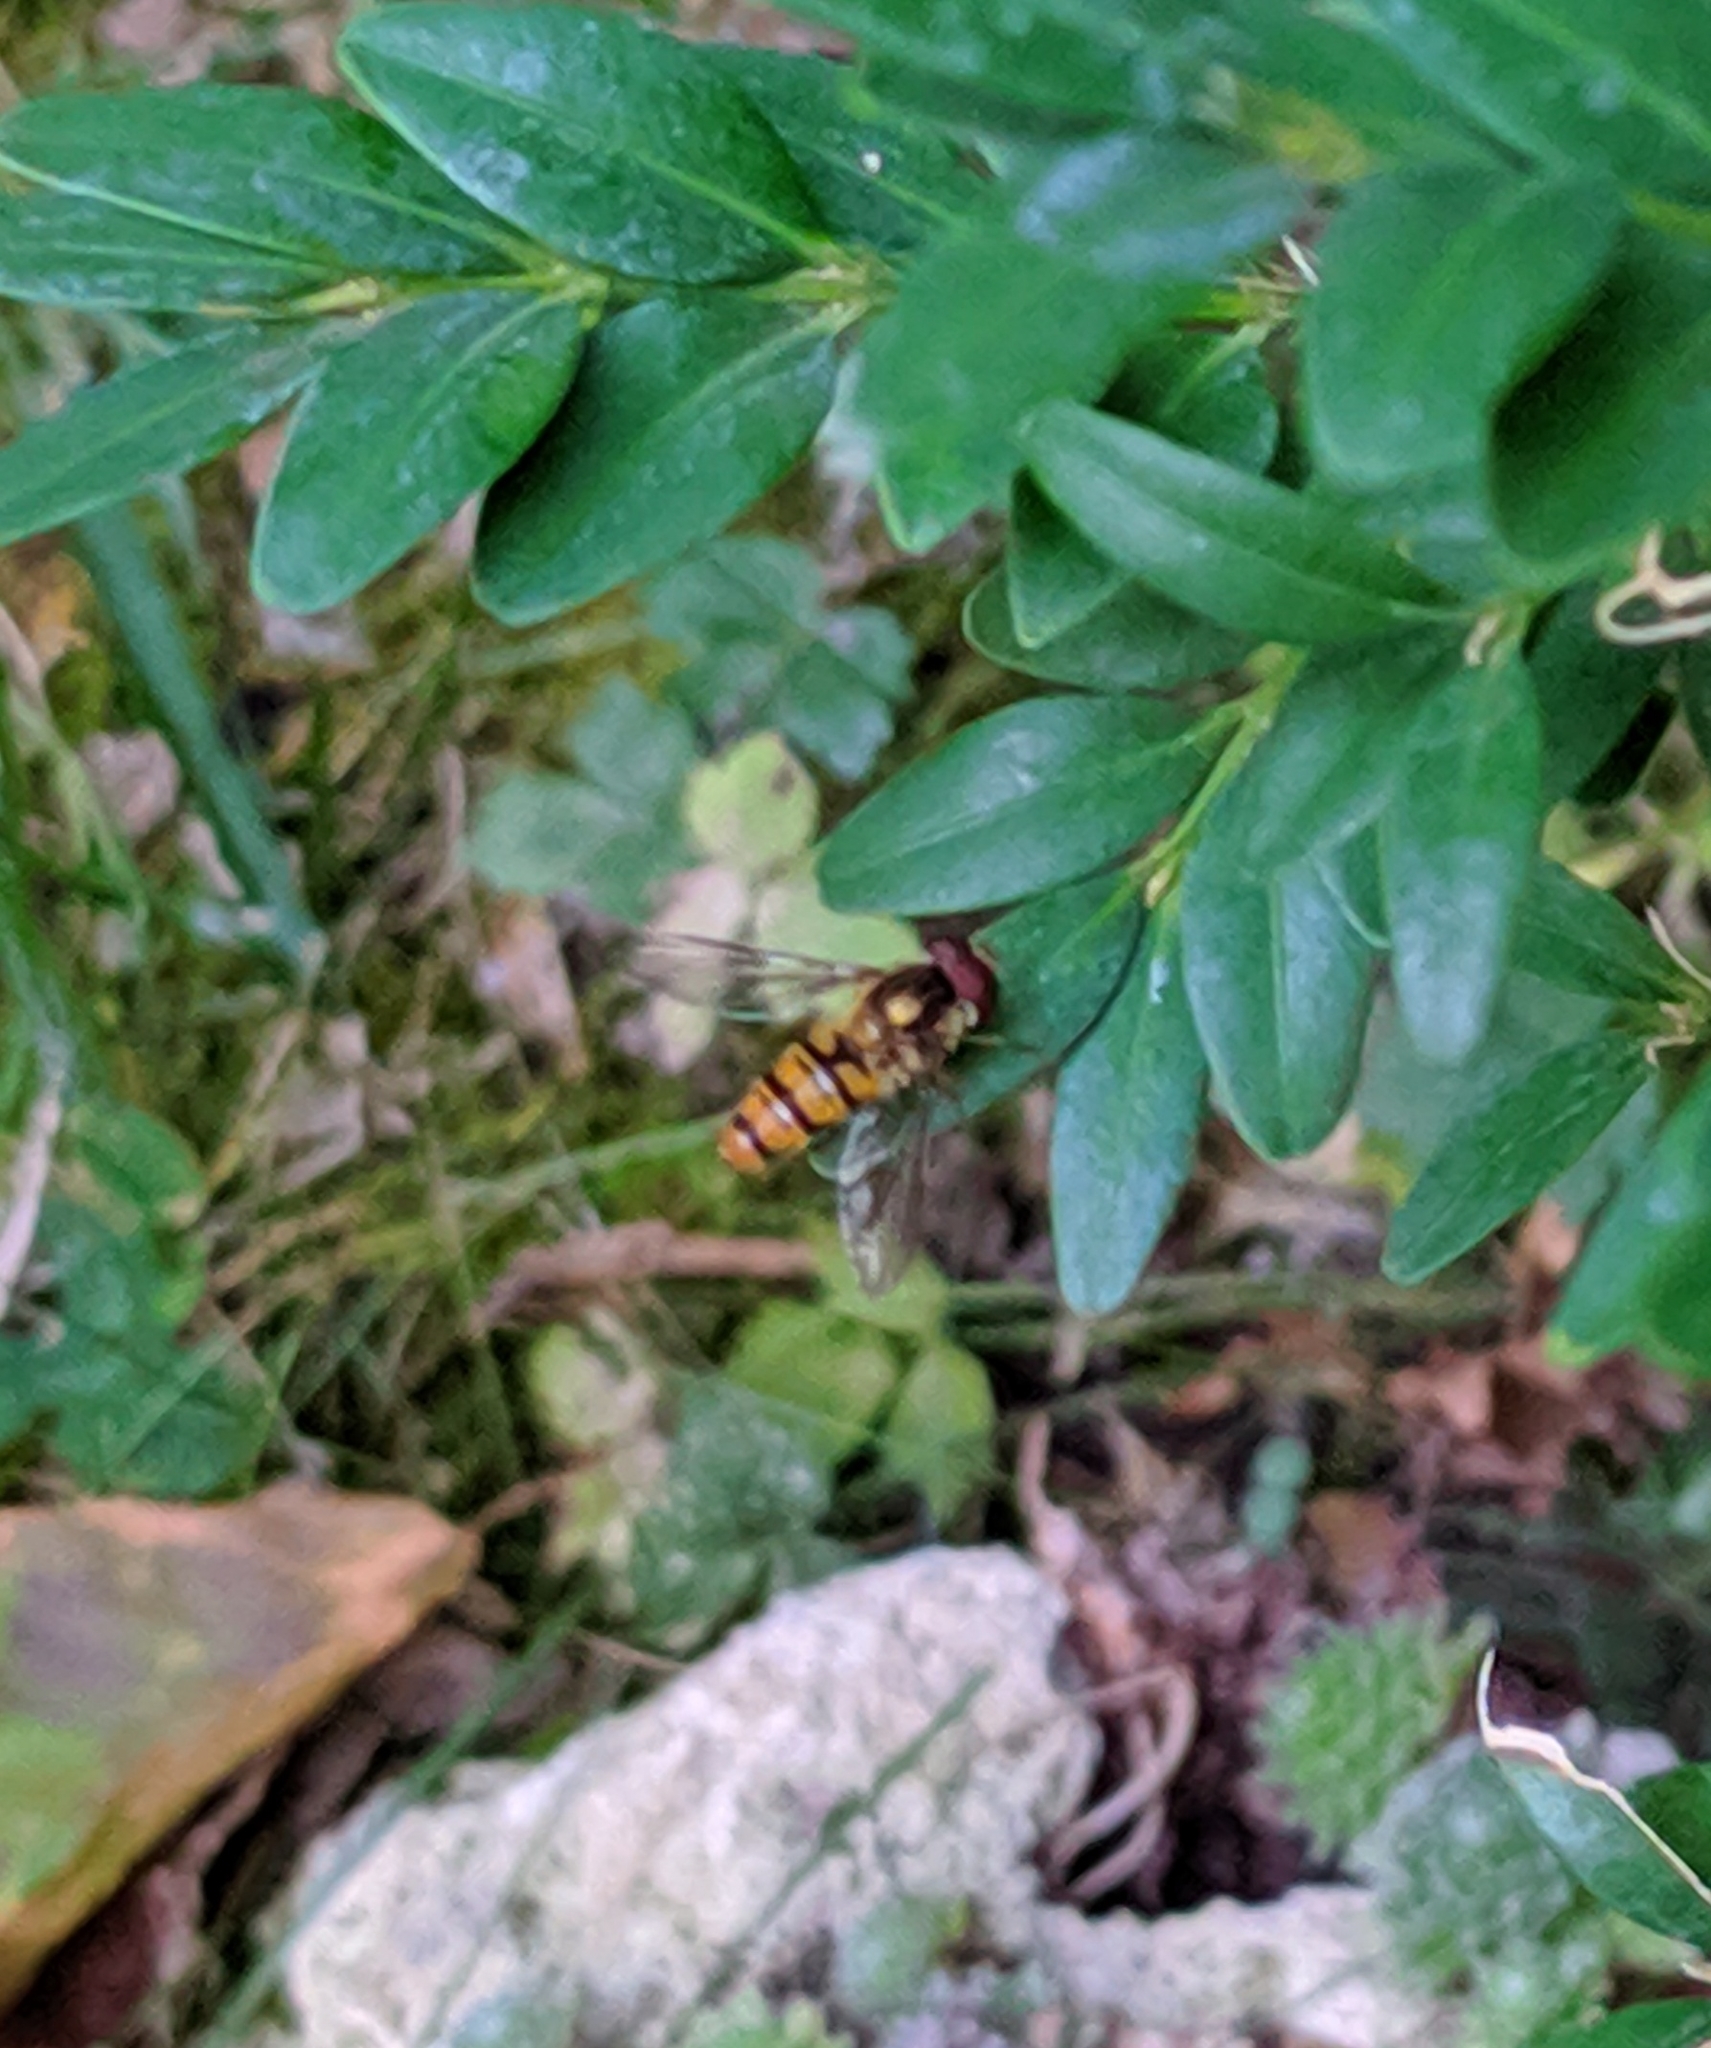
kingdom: Animalia
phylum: Arthropoda
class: Insecta
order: Diptera
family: Syrphidae
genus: Episyrphus
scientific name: Episyrphus balteatus
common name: Marmalade hoverfly
